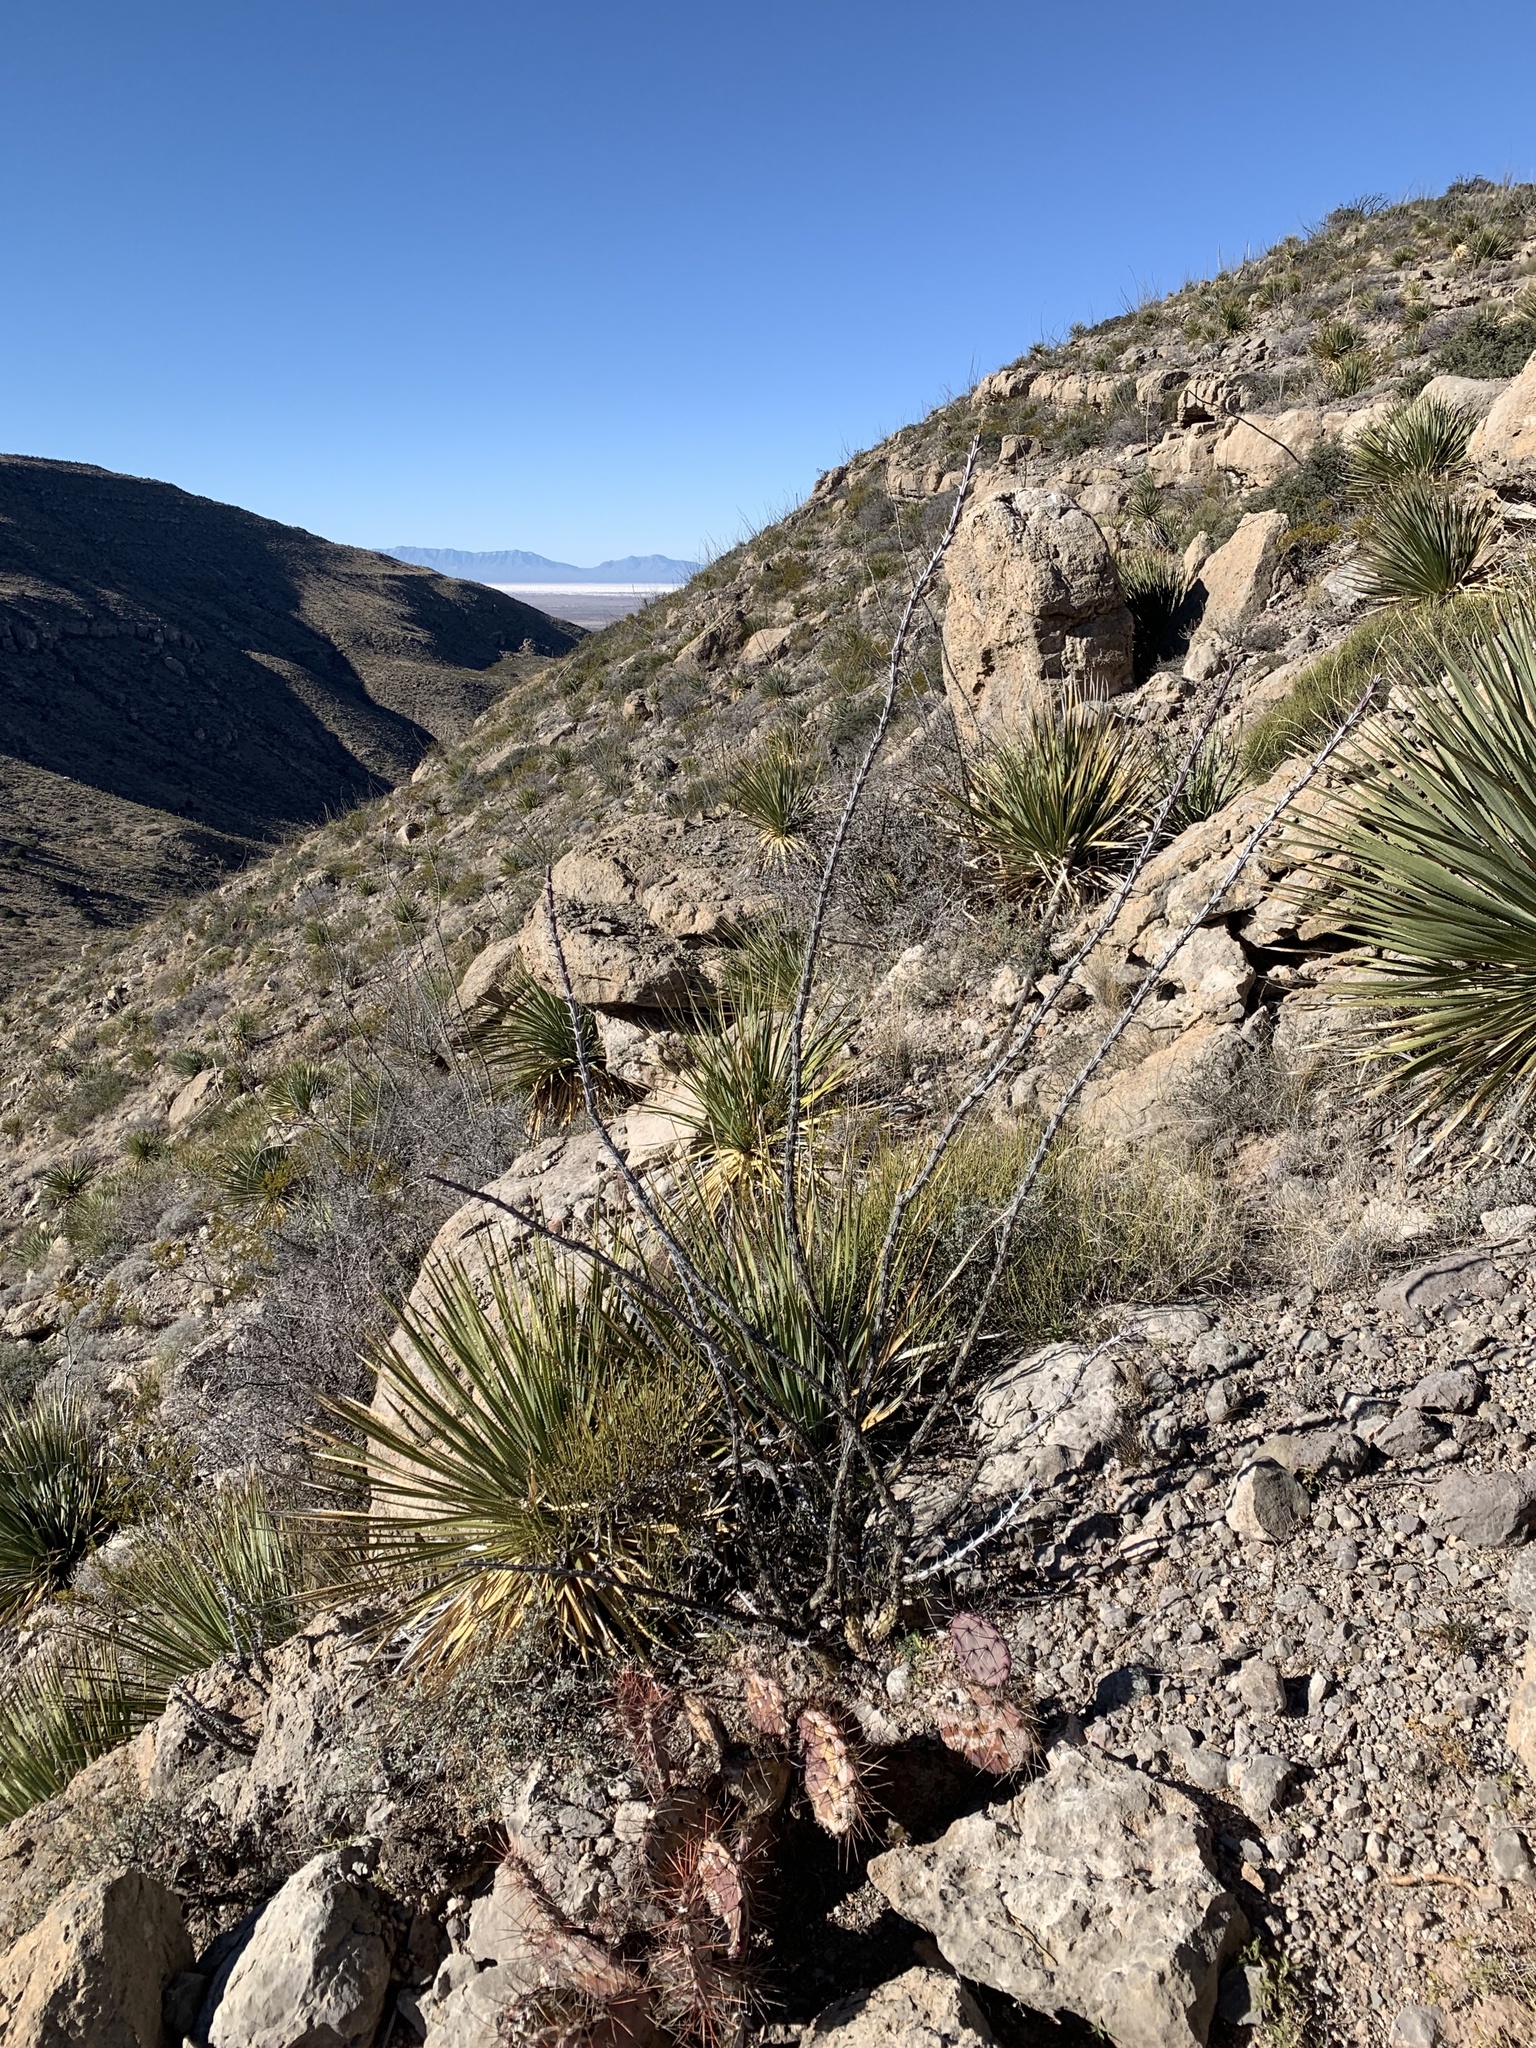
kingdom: Plantae
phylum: Tracheophyta
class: Magnoliopsida
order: Ericales
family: Fouquieriaceae
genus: Fouquieria
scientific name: Fouquieria splendens
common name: Vine-cactus
